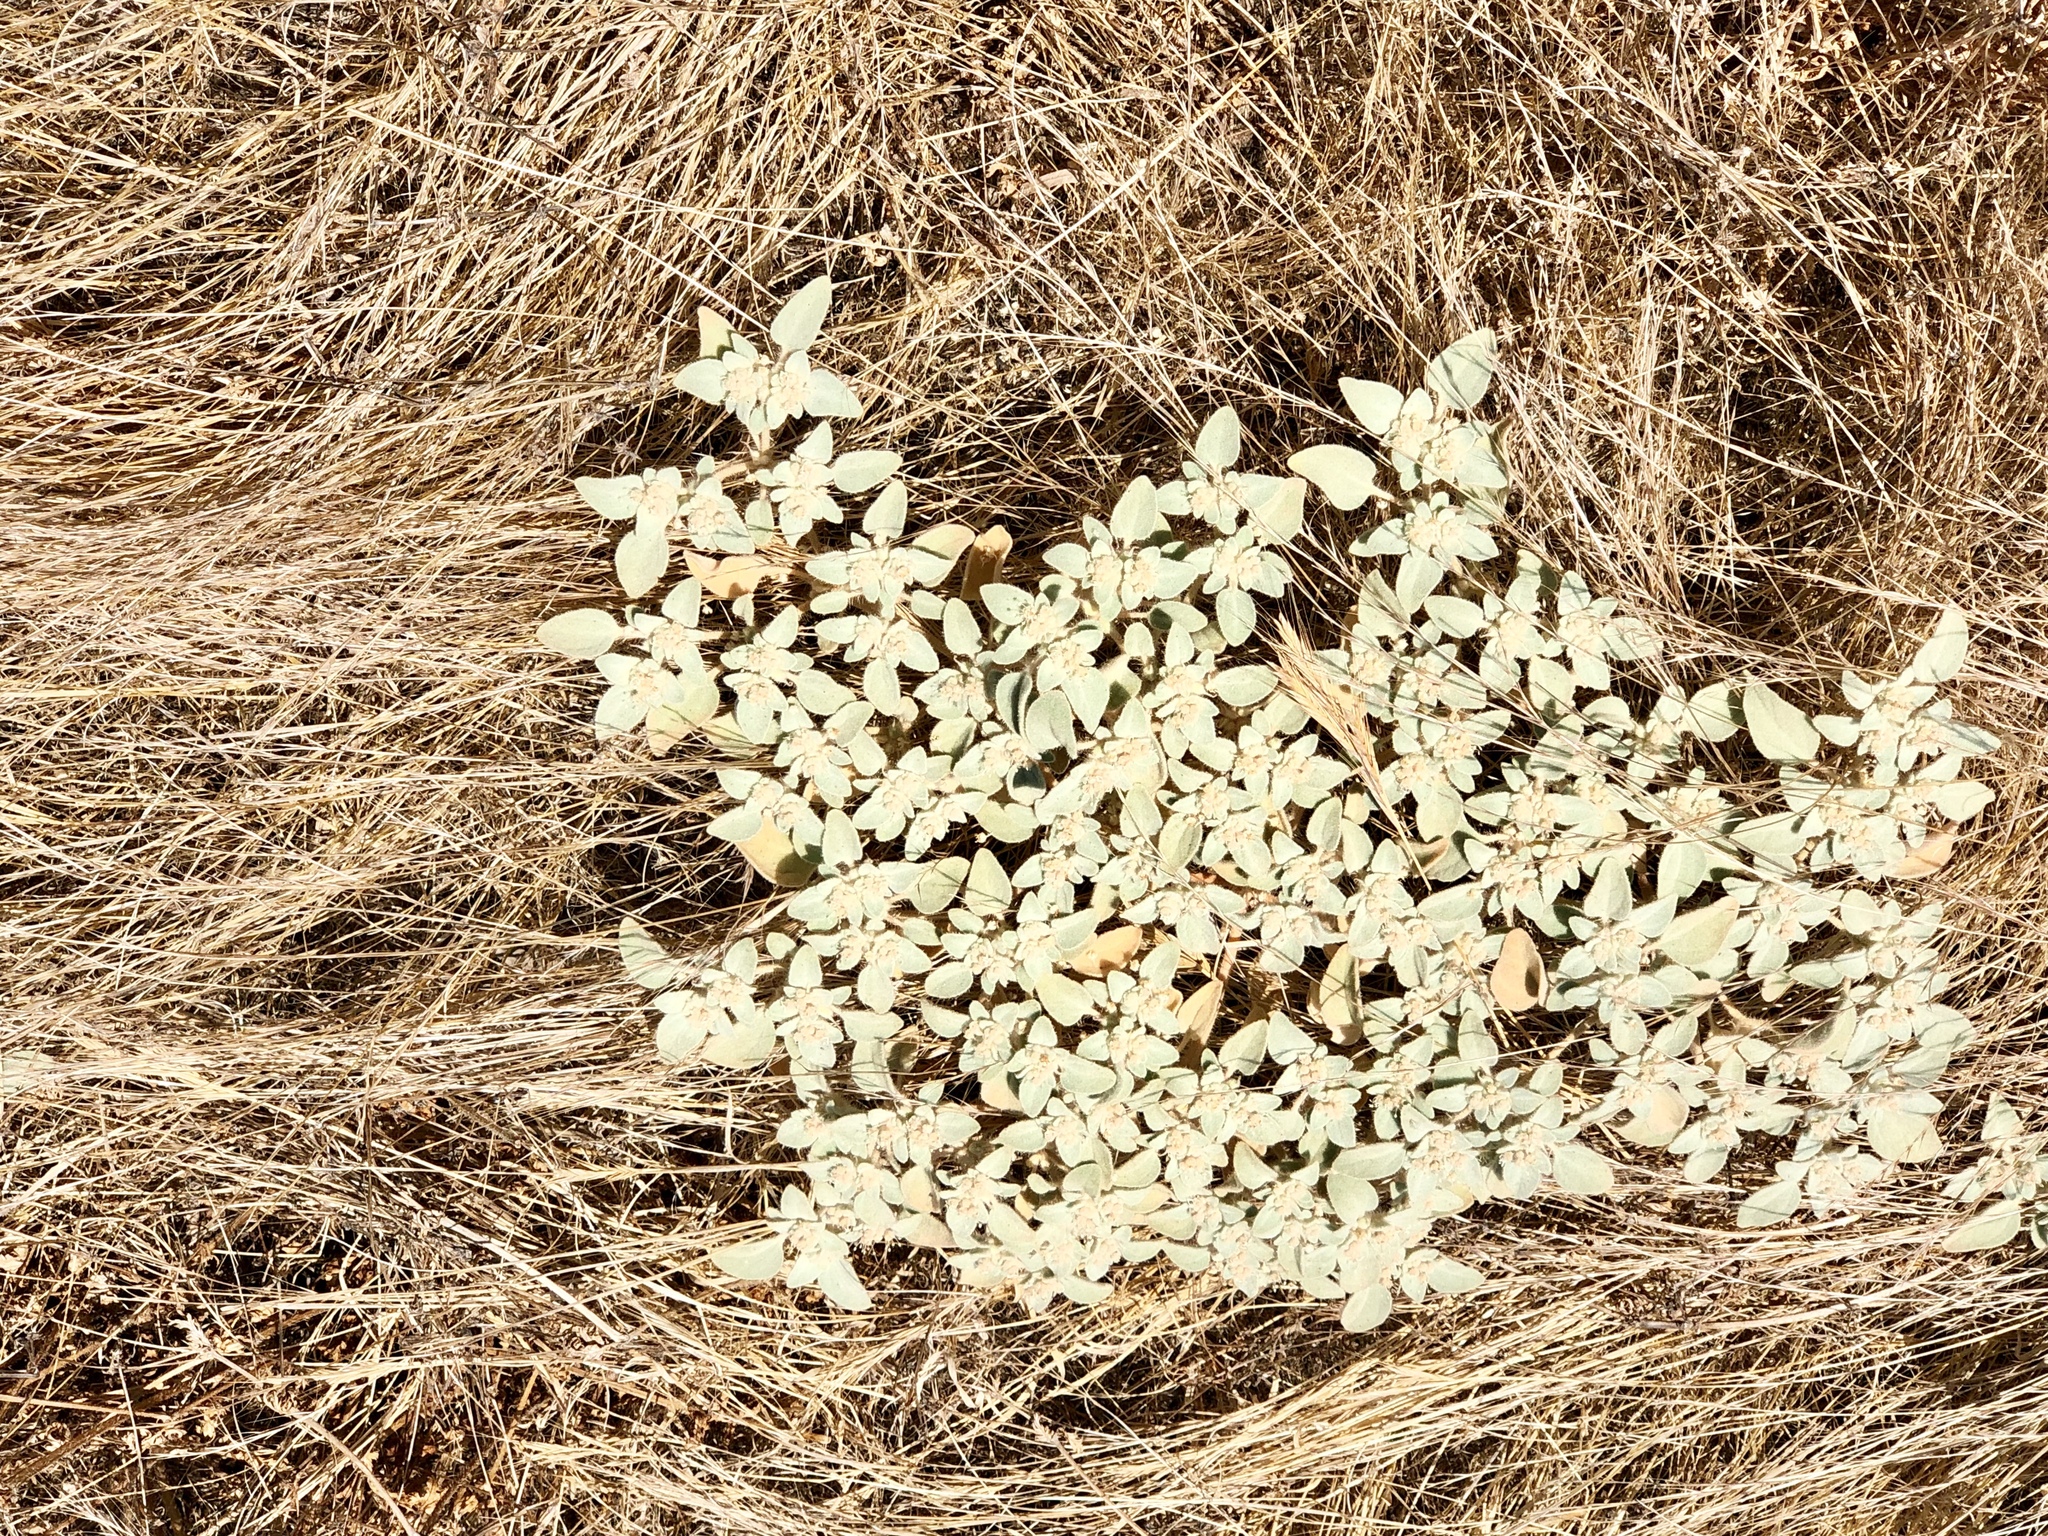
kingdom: Plantae
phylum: Tracheophyta
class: Magnoliopsida
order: Malpighiales
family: Euphorbiaceae
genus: Croton
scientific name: Croton setiger
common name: Dove weed
